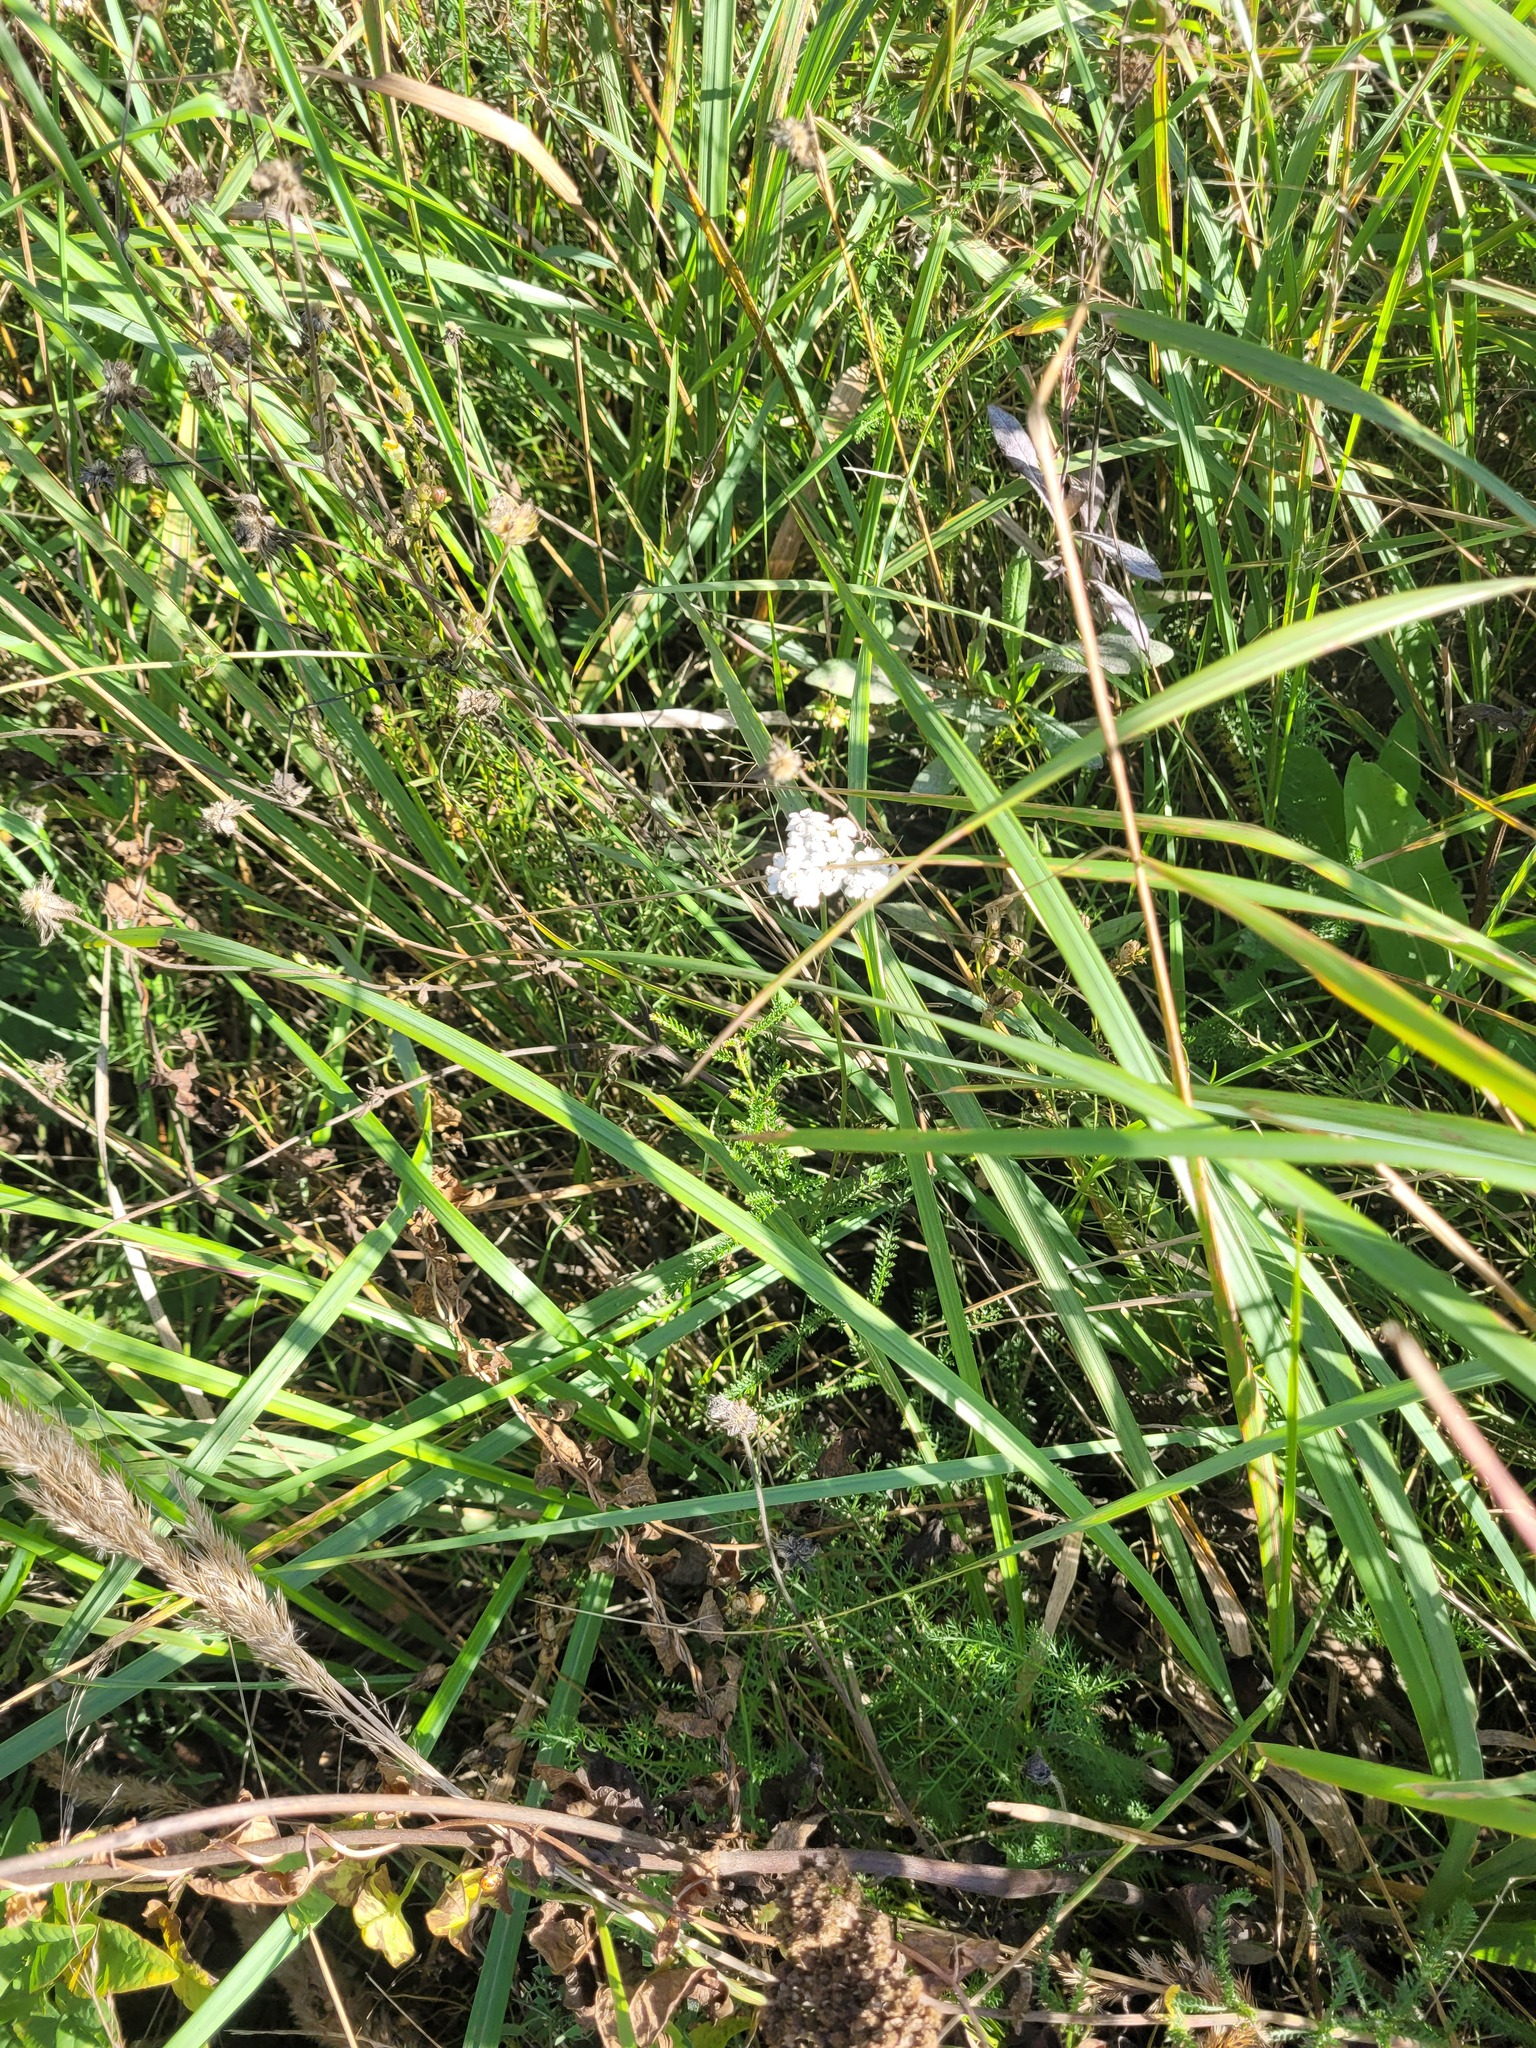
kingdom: Plantae
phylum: Tracheophyta
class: Magnoliopsida
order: Asterales
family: Asteraceae
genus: Achillea
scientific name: Achillea millefolium
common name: Yarrow
